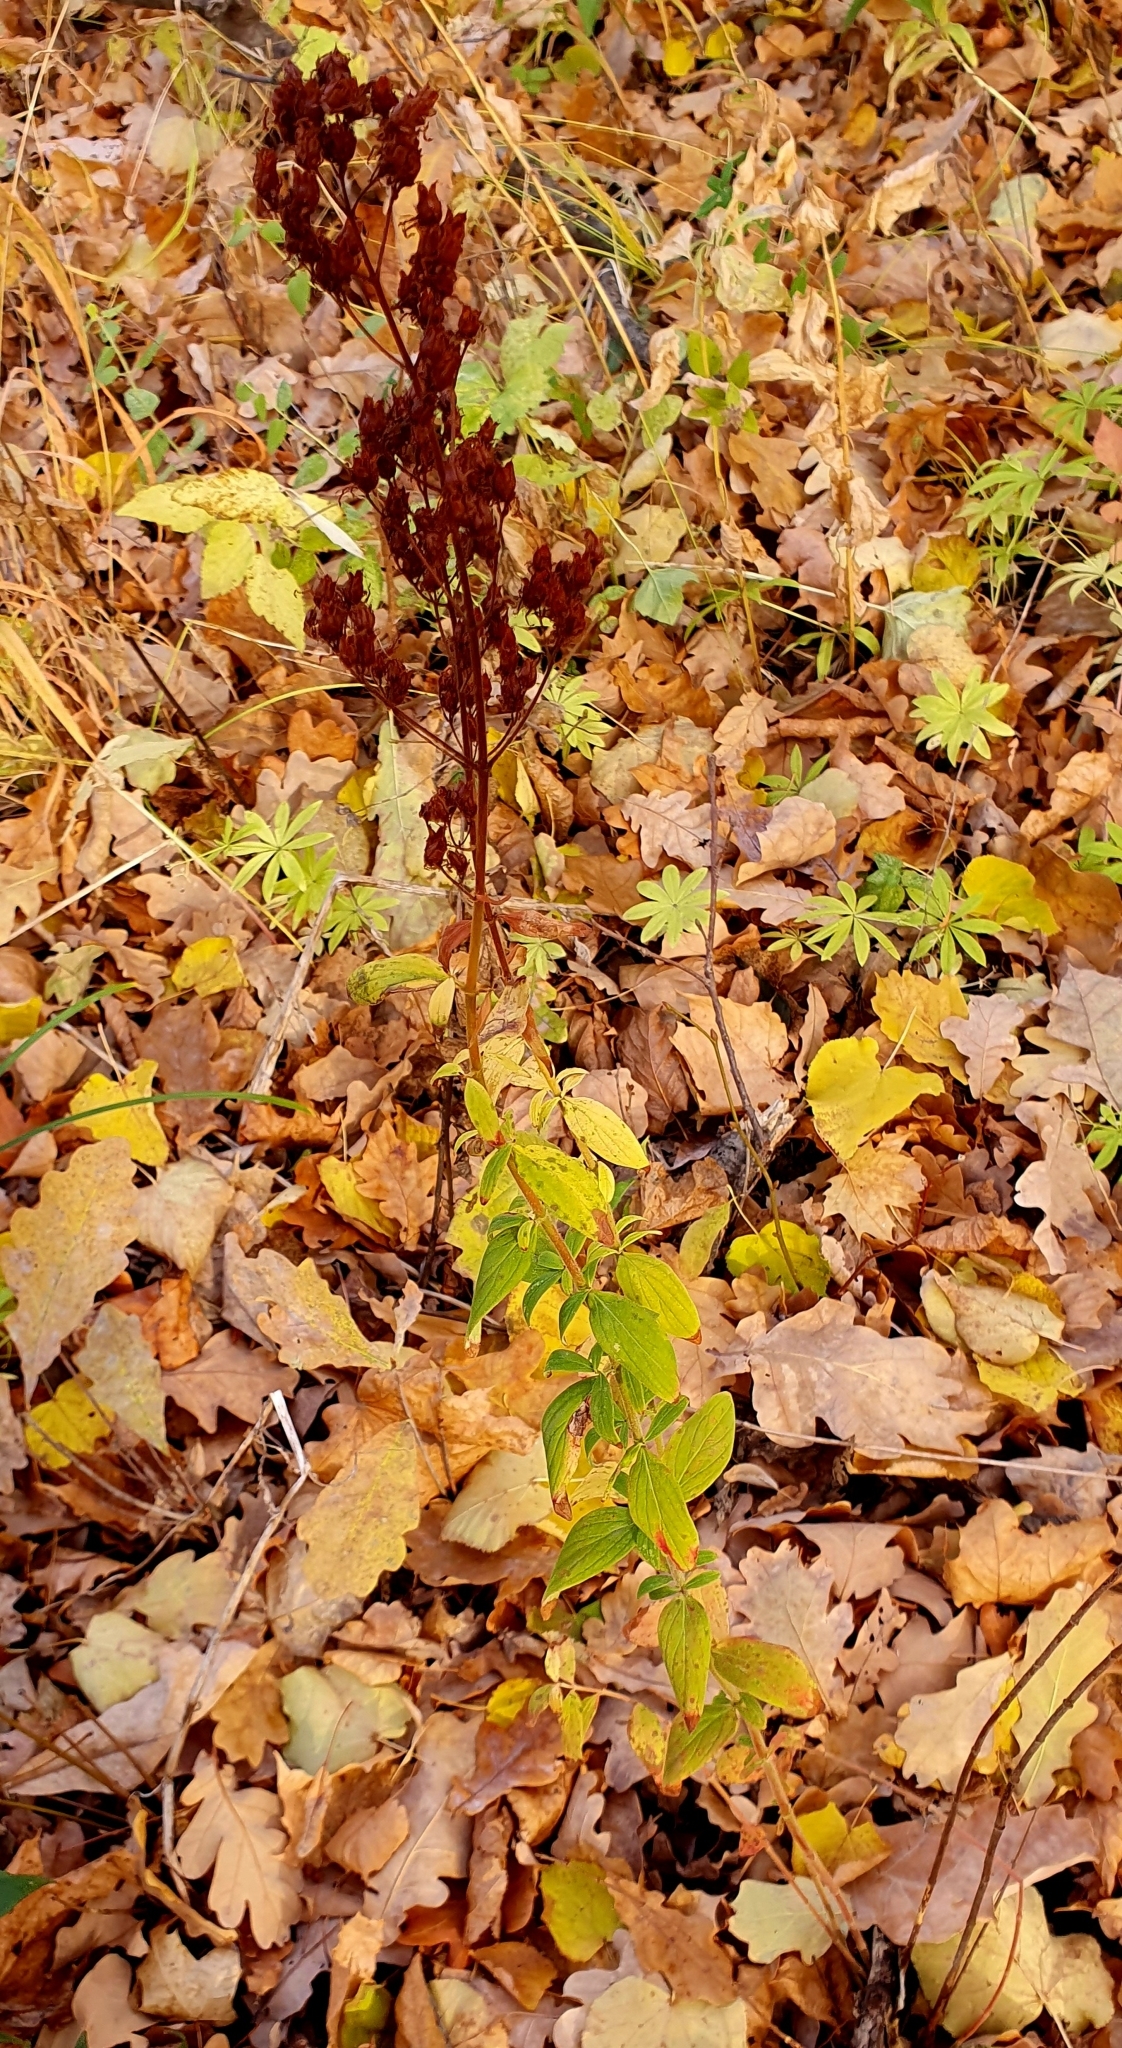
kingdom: Plantae
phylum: Tracheophyta
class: Magnoliopsida
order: Malpighiales
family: Hypericaceae
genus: Hypericum
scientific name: Hypericum hirsutum
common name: Hairy st. john's-wort
